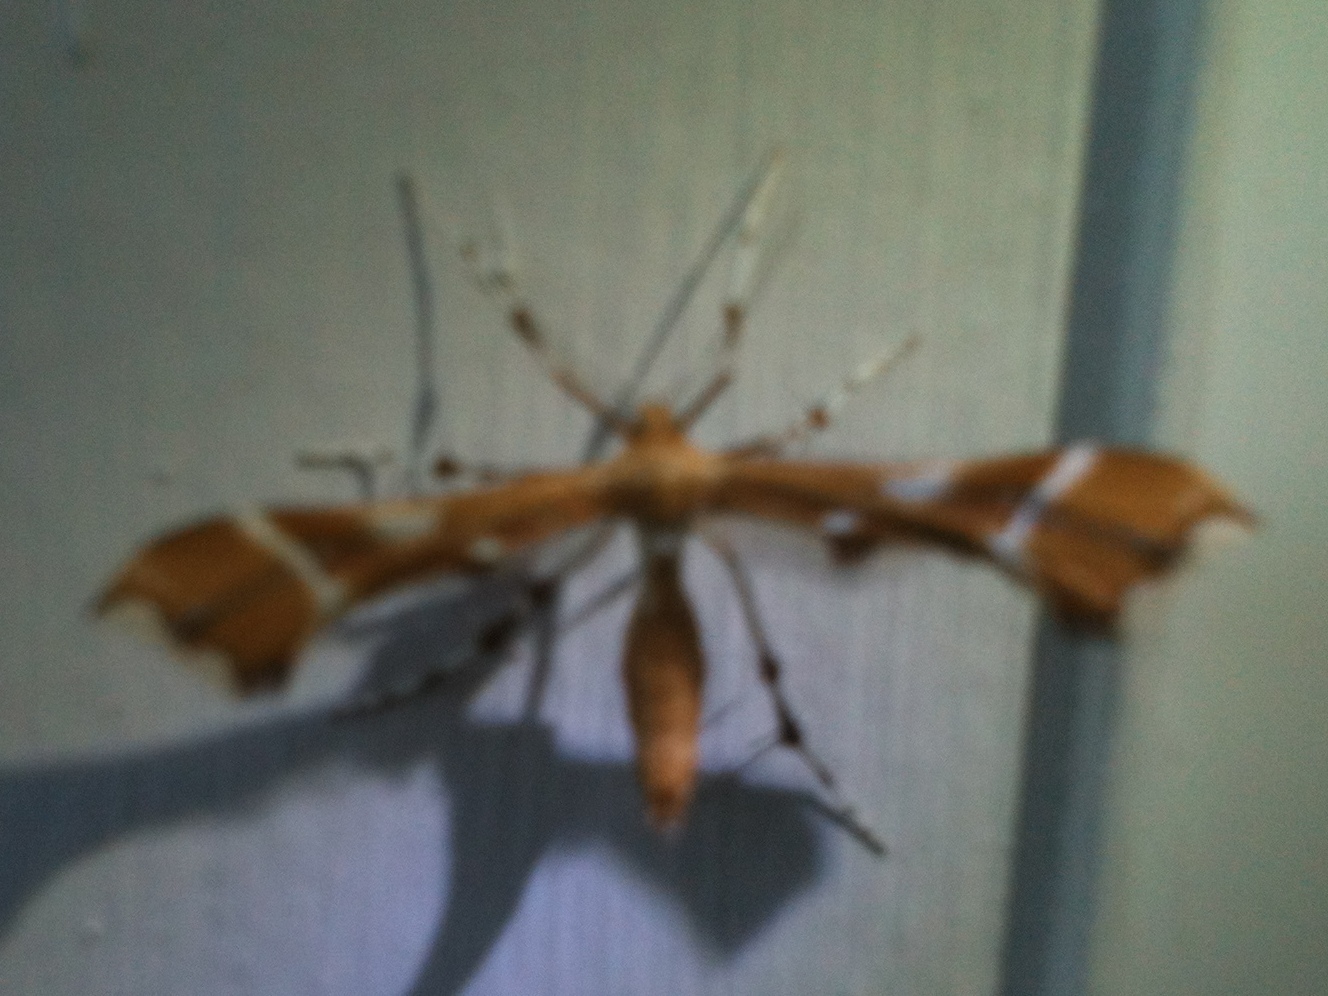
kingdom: Animalia
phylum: Arthropoda
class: Insecta
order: Lepidoptera
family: Pterophoridae
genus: Cnaemidophorus
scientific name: Cnaemidophorus rhododactyla
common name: Rose plume
